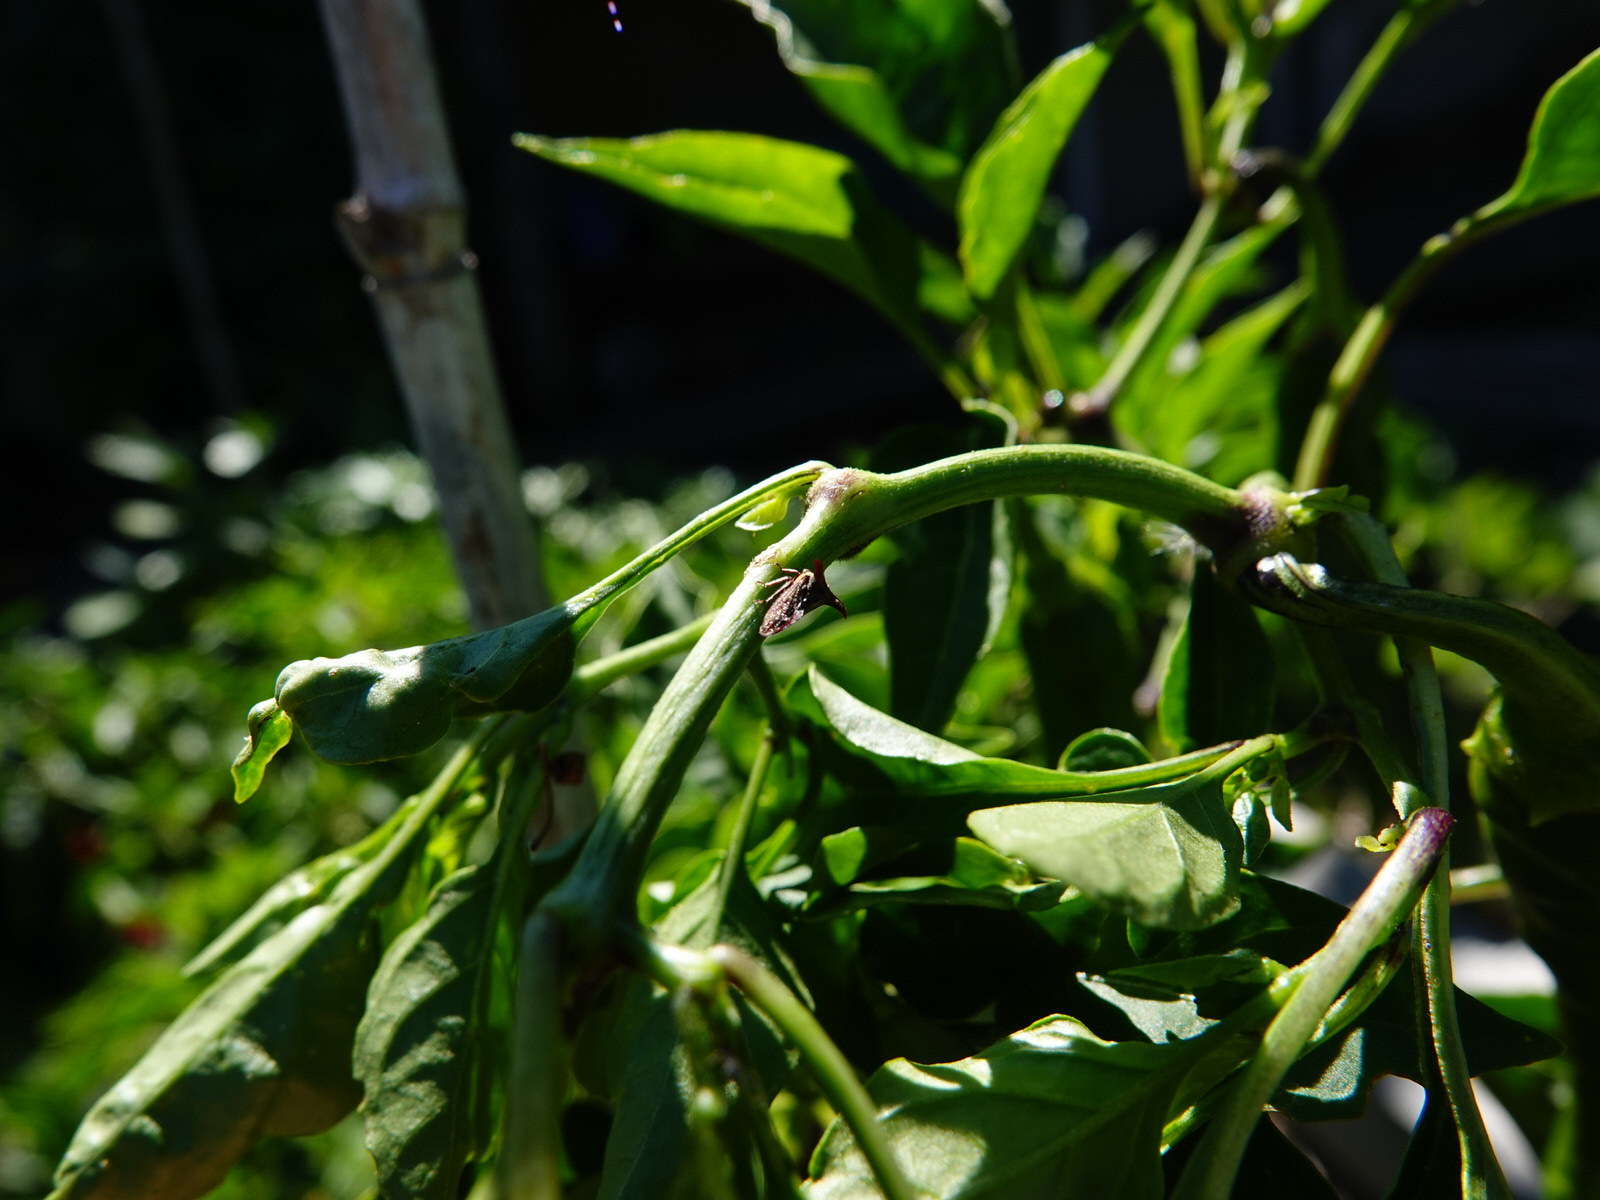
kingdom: Animalia
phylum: Arthropoda
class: Insecta
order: Hemiptera
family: Membracidae
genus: Acanthuchus
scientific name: Acanthuchus trispinifer
